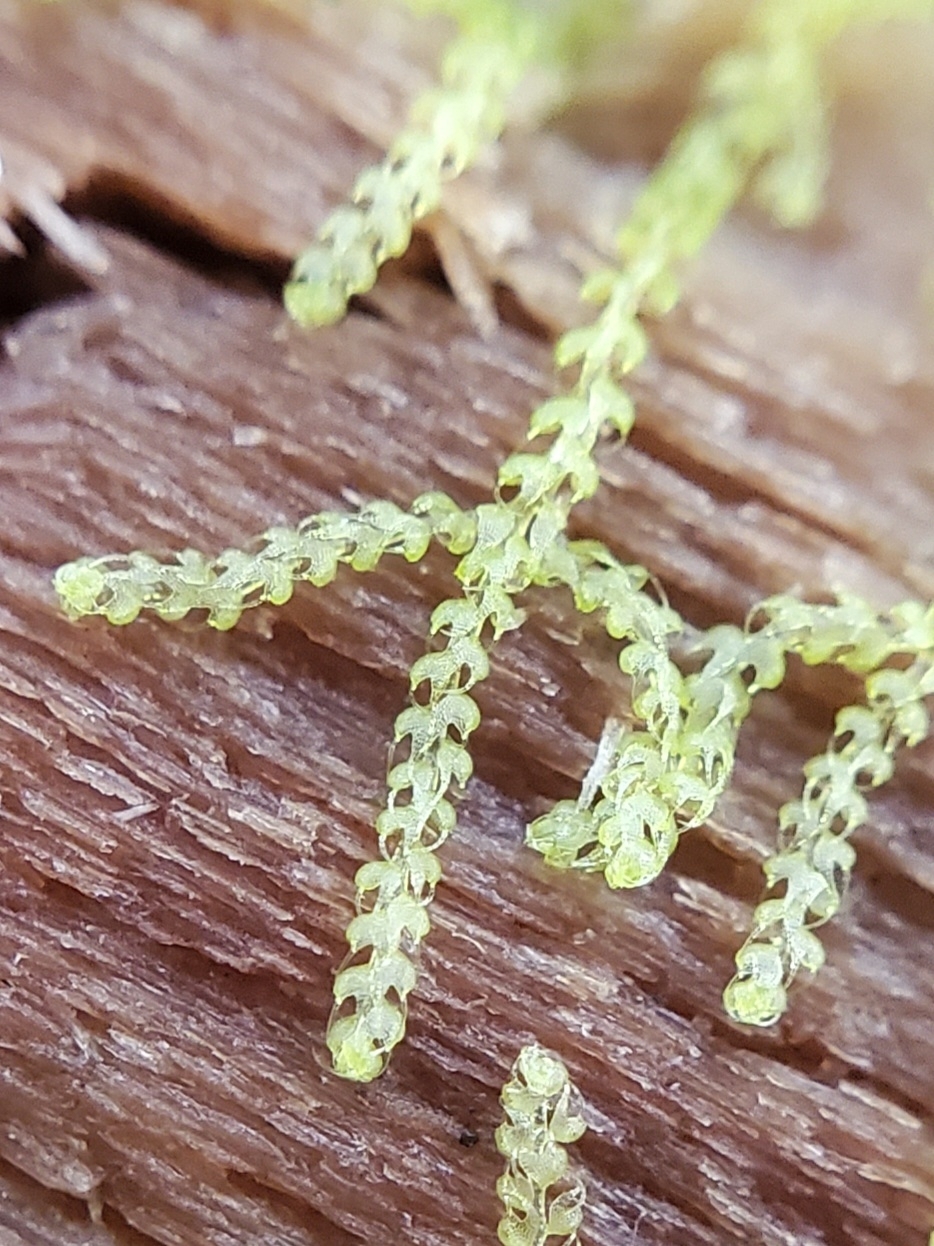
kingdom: Plantae
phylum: Marchantiophyta
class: Jungermanniopsida
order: Jungermanniales
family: Cephaloziaceae
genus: Nowellia
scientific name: Nowellia curvifolia
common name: Wood rustwort
